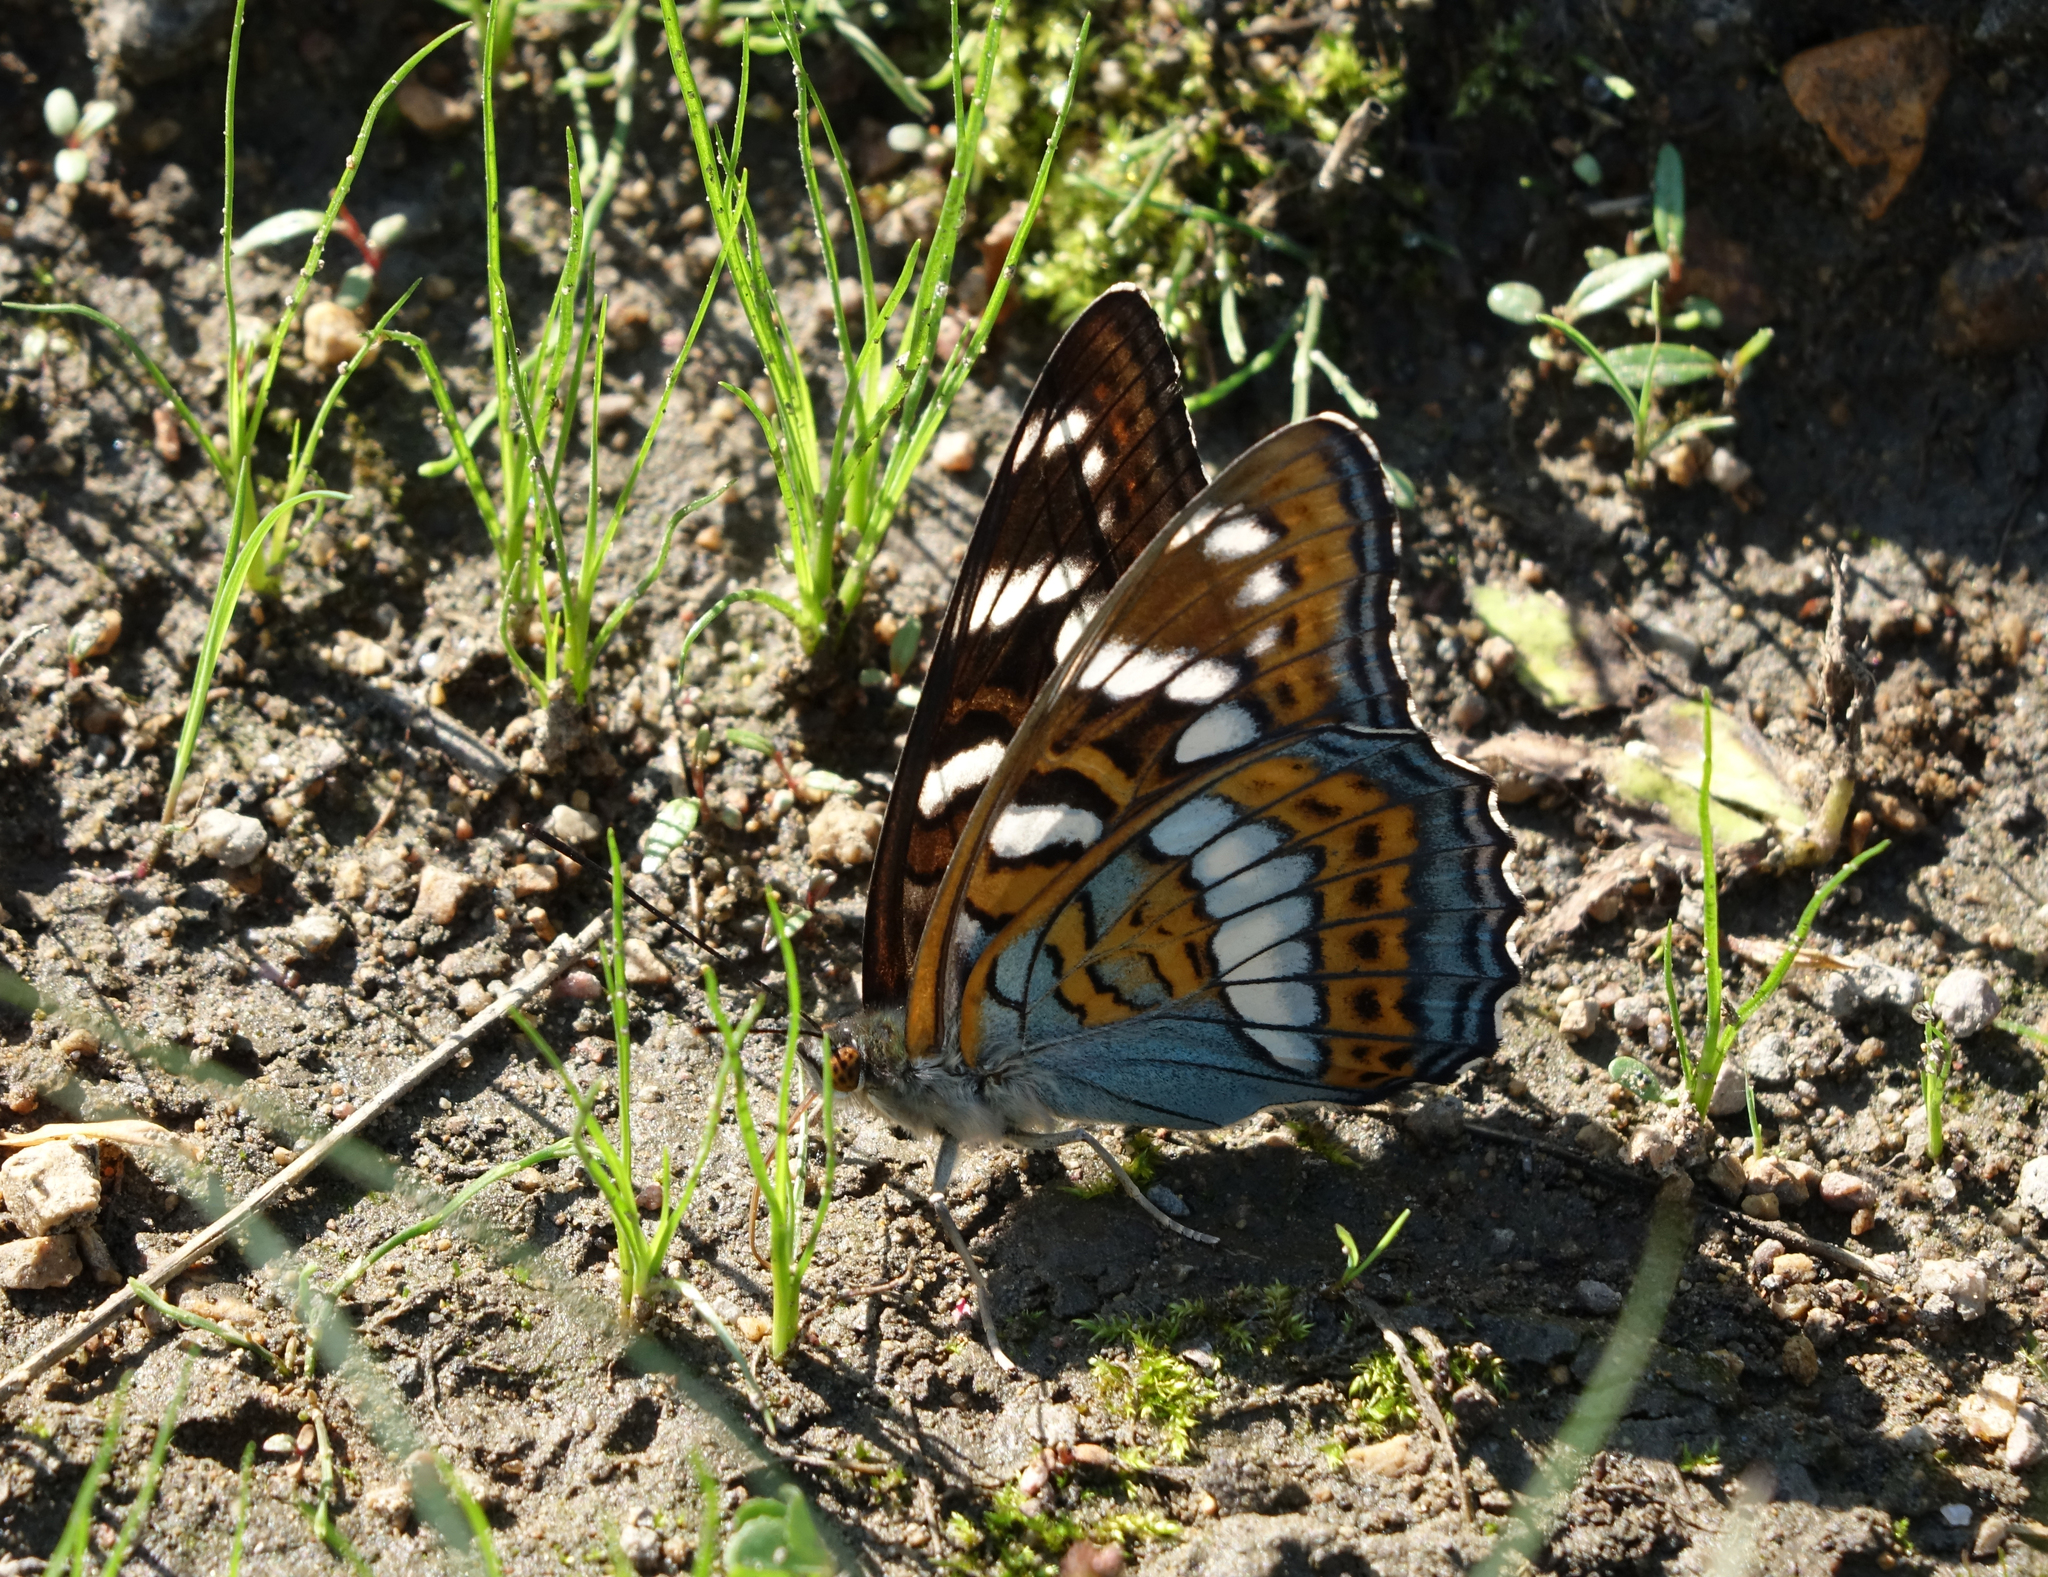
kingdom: Animalia
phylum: Arthropoda
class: Insecta
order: Lepidoptera
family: Nymphalidae
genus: Limenitis
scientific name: Limenitis populi
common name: Poplar admiral
